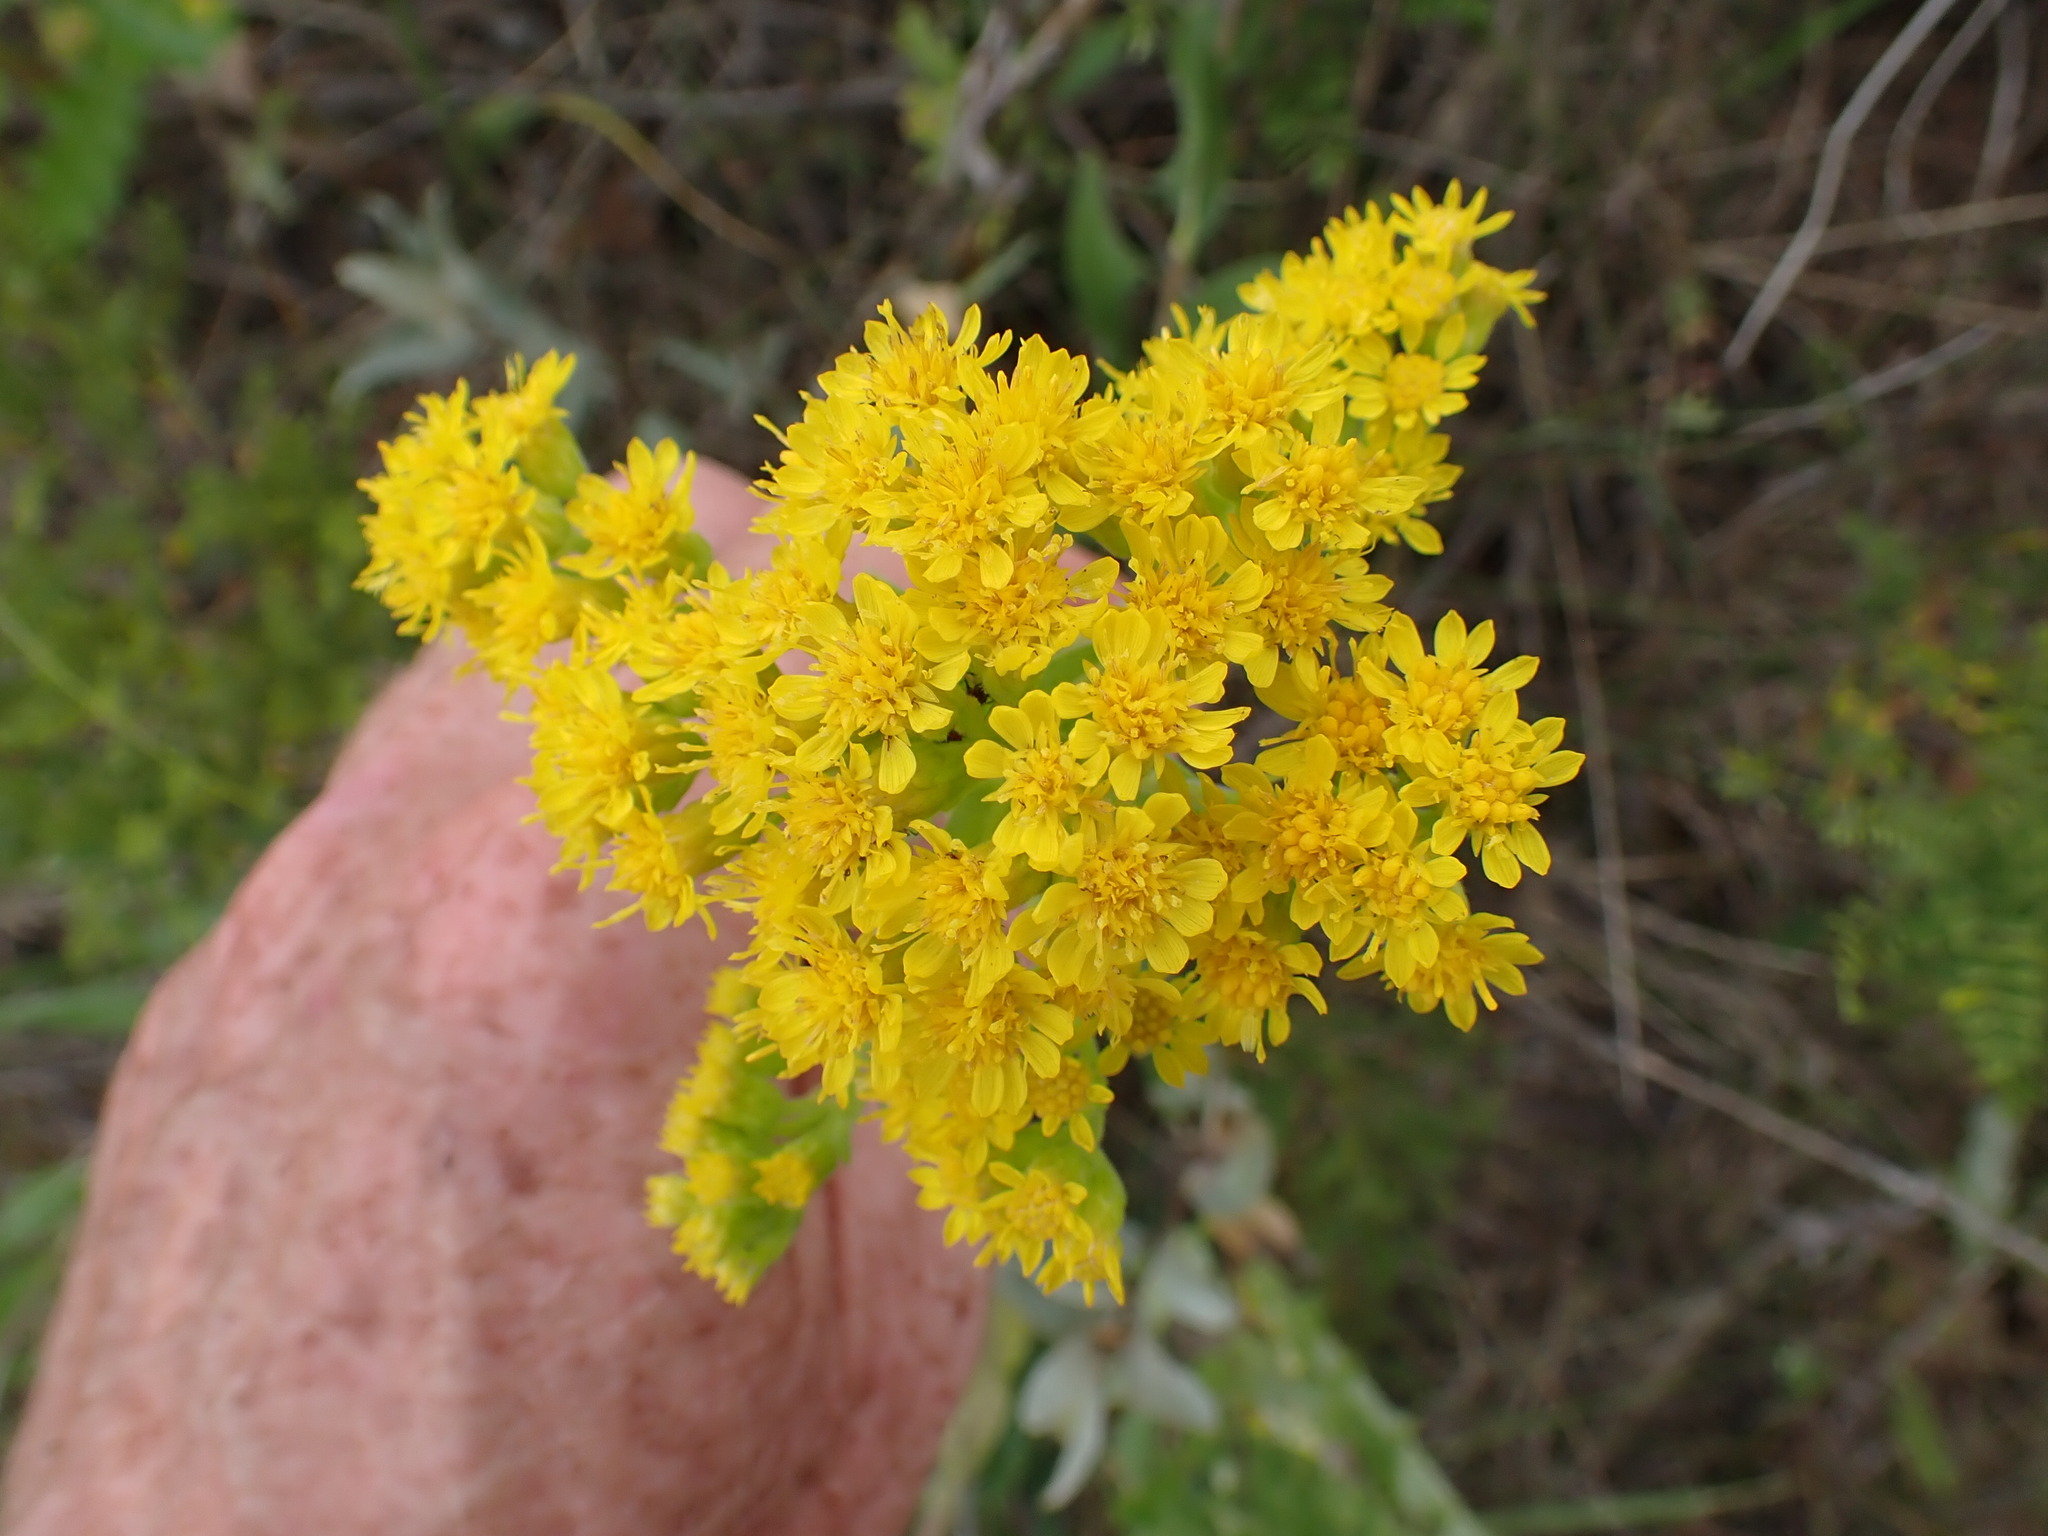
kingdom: Plantae
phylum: Tracheophyta
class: Magnoliopsida
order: Asterales
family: Asteraceae
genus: Solidago
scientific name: Solidago rigida
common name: Rigid goldenrod
